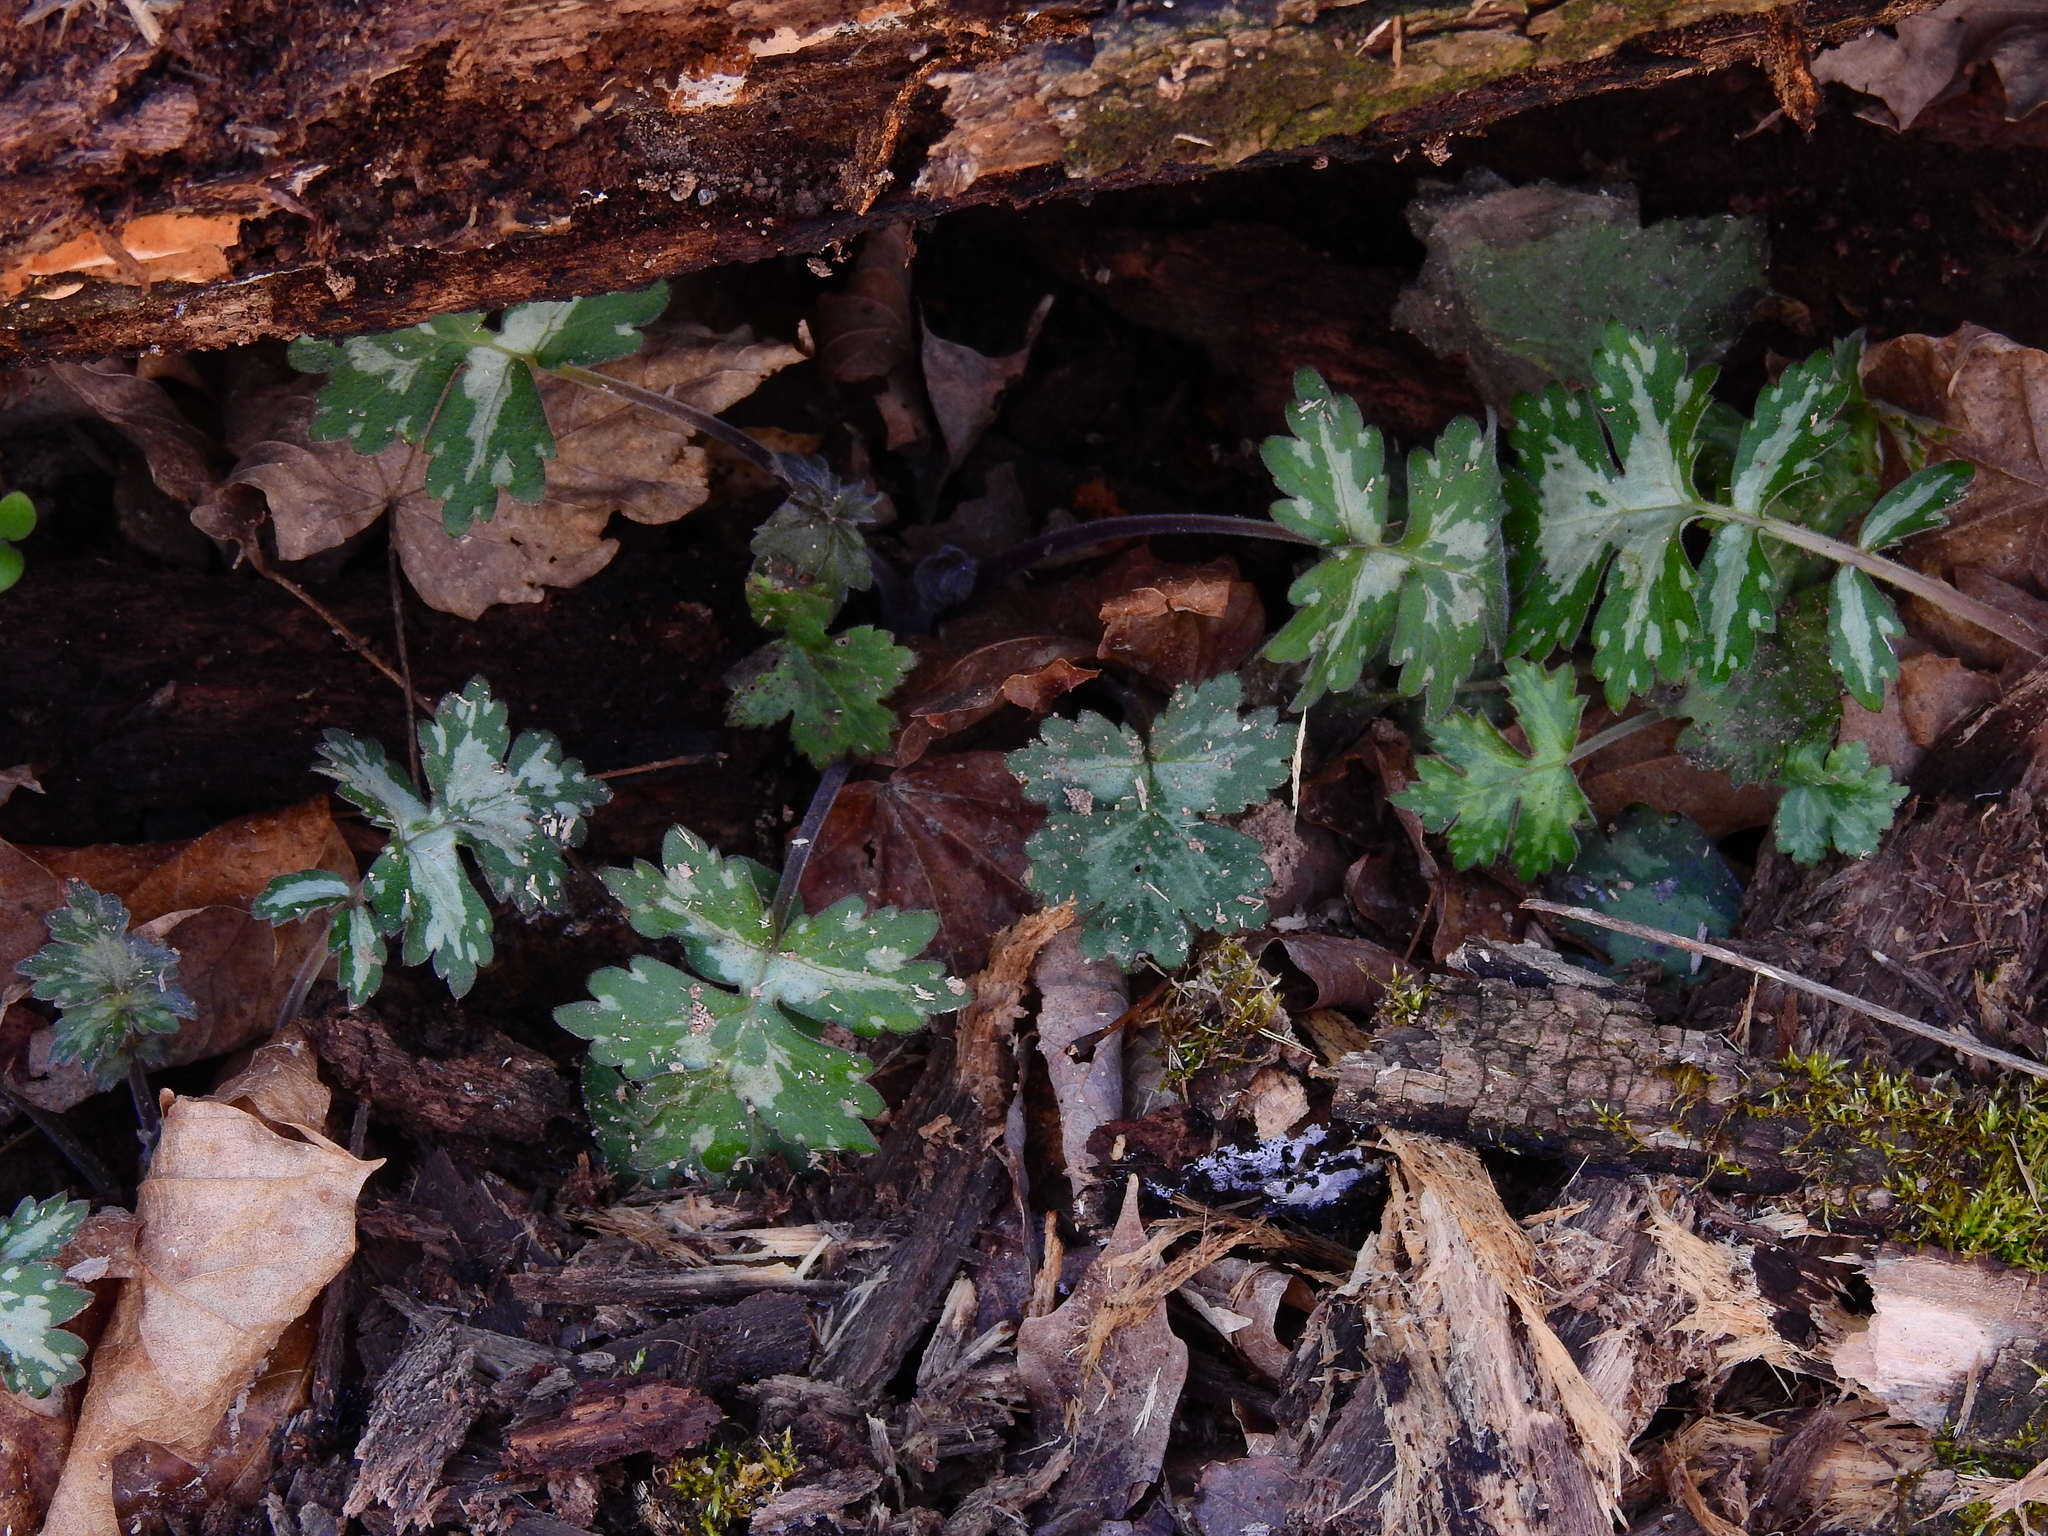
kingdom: Plantae
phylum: Tracheophyta
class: Magnoliopsida
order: Boraginales
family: Hydrophyllaceae
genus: Hydrophyllum
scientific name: Hydrophyllum appendiculatum
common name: Appendaged waterleaf
